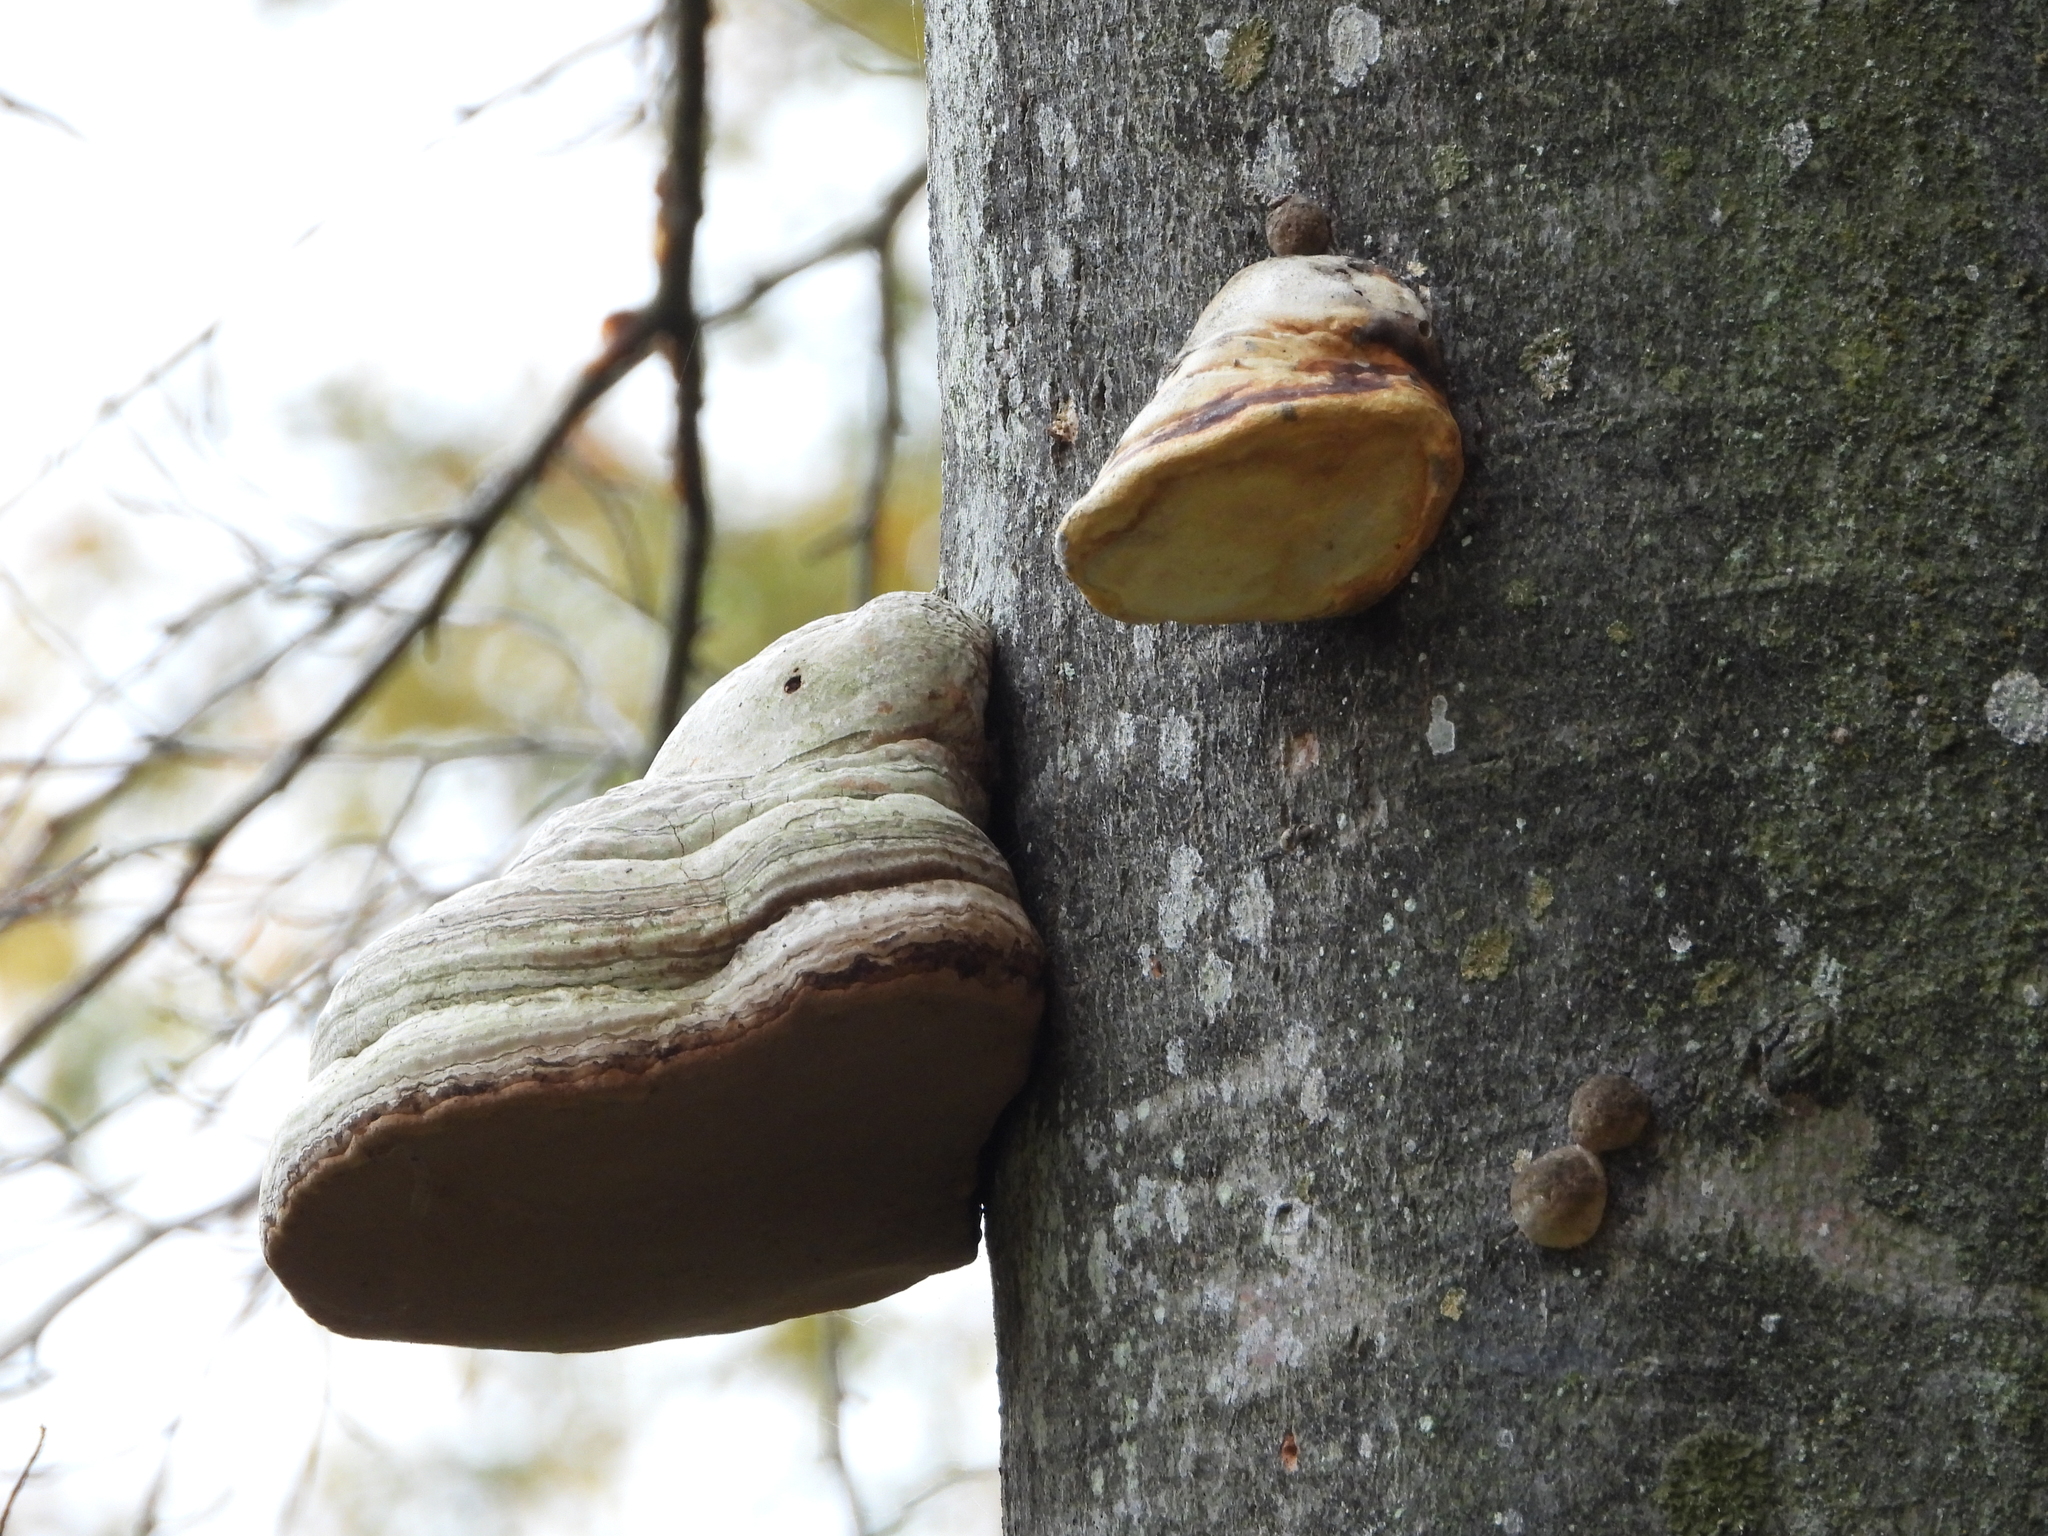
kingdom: Fungi
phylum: Basidiomycota
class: Agaricomycetes
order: Polyporales
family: Polyporaceae
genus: Fomes
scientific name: Fomes fomentarius
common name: Hoof fungus
